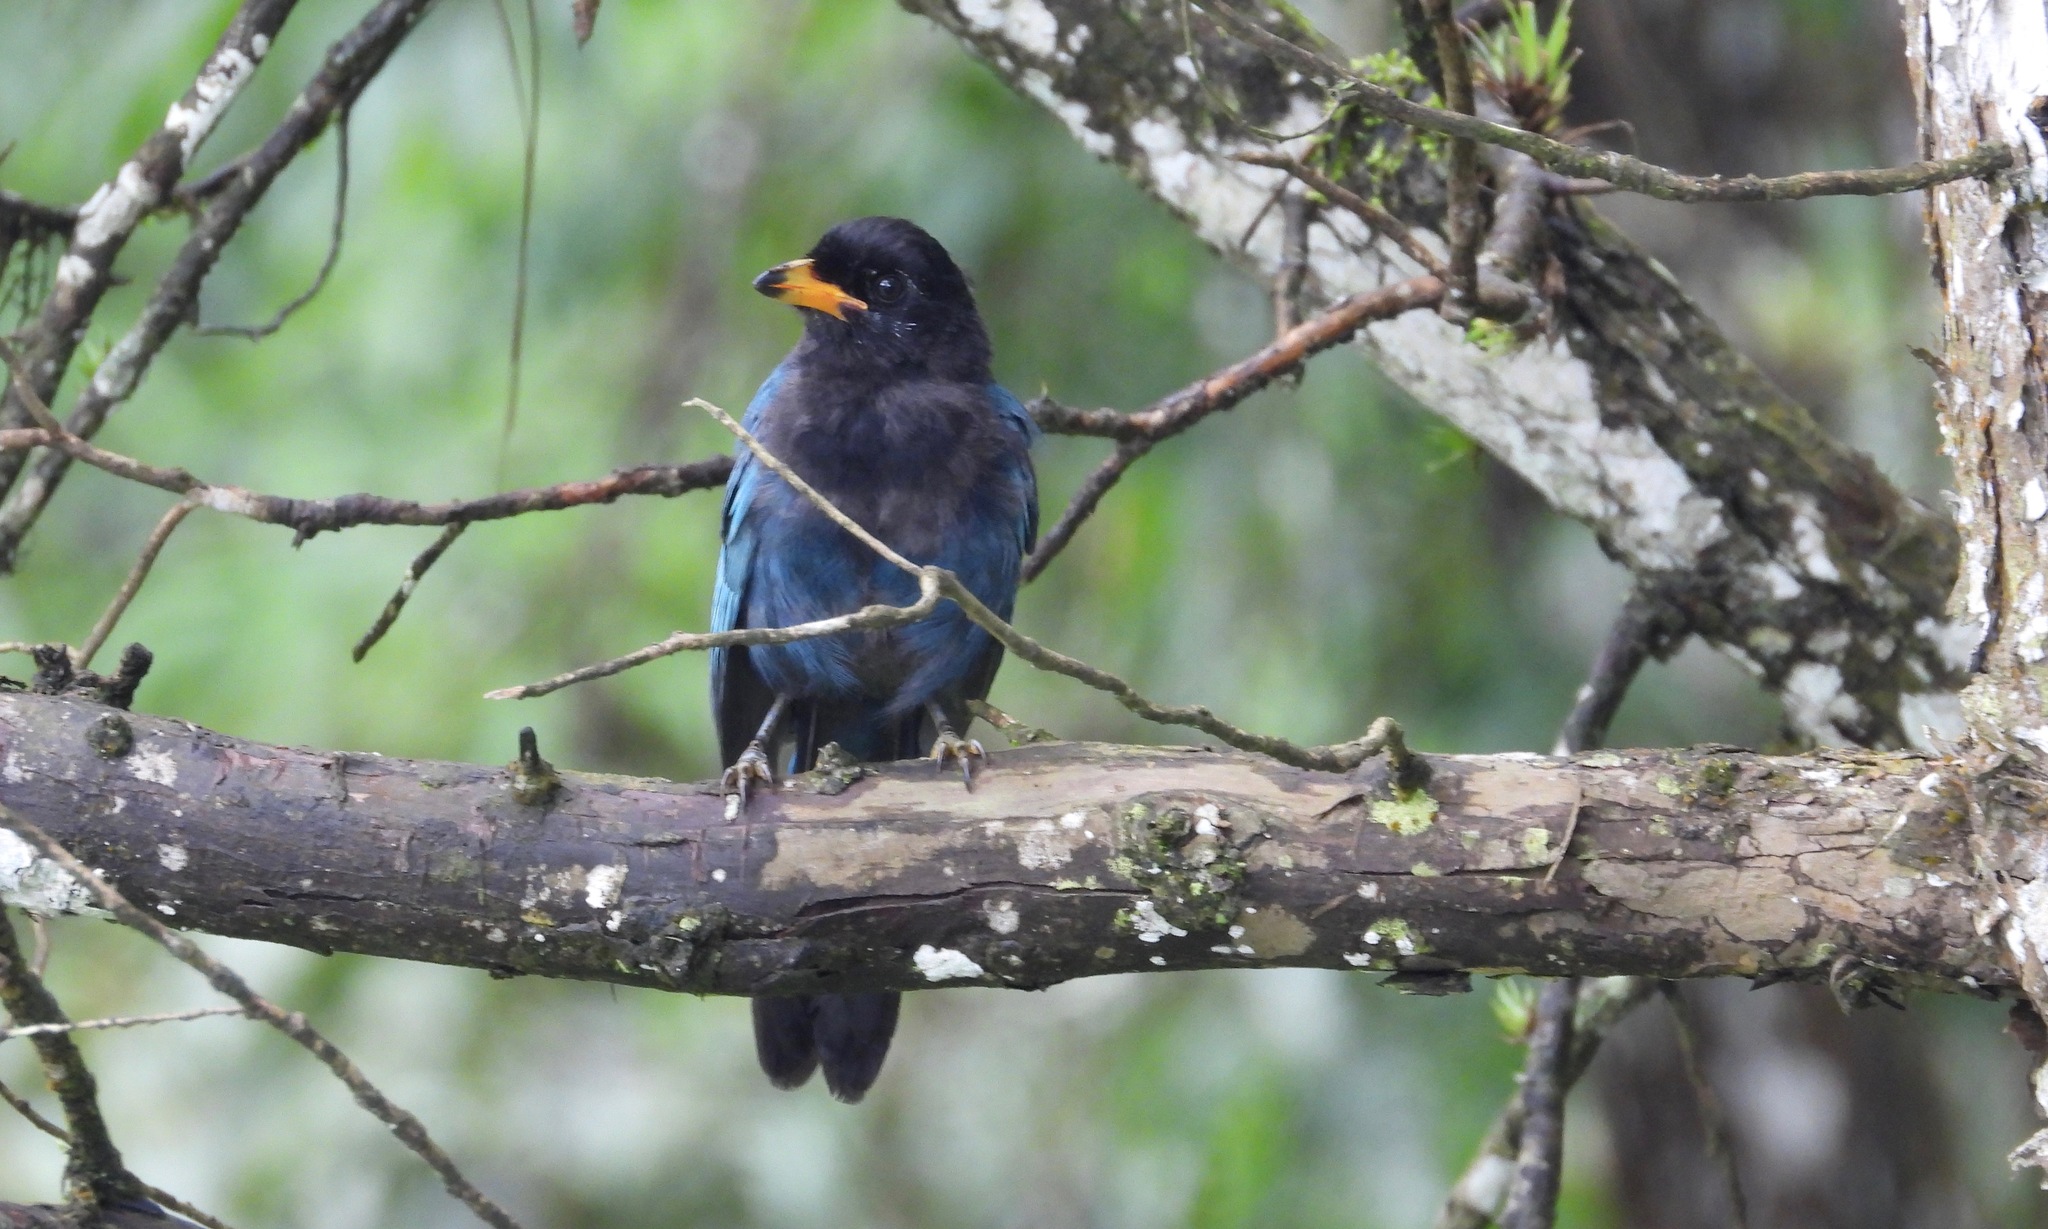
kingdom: Animalia
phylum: Chordata
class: Aves
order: Passeriformes
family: Corvidae
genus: Cyanocorax
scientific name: Cyanocorax melanocyaneus
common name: Bushy-crested jay
